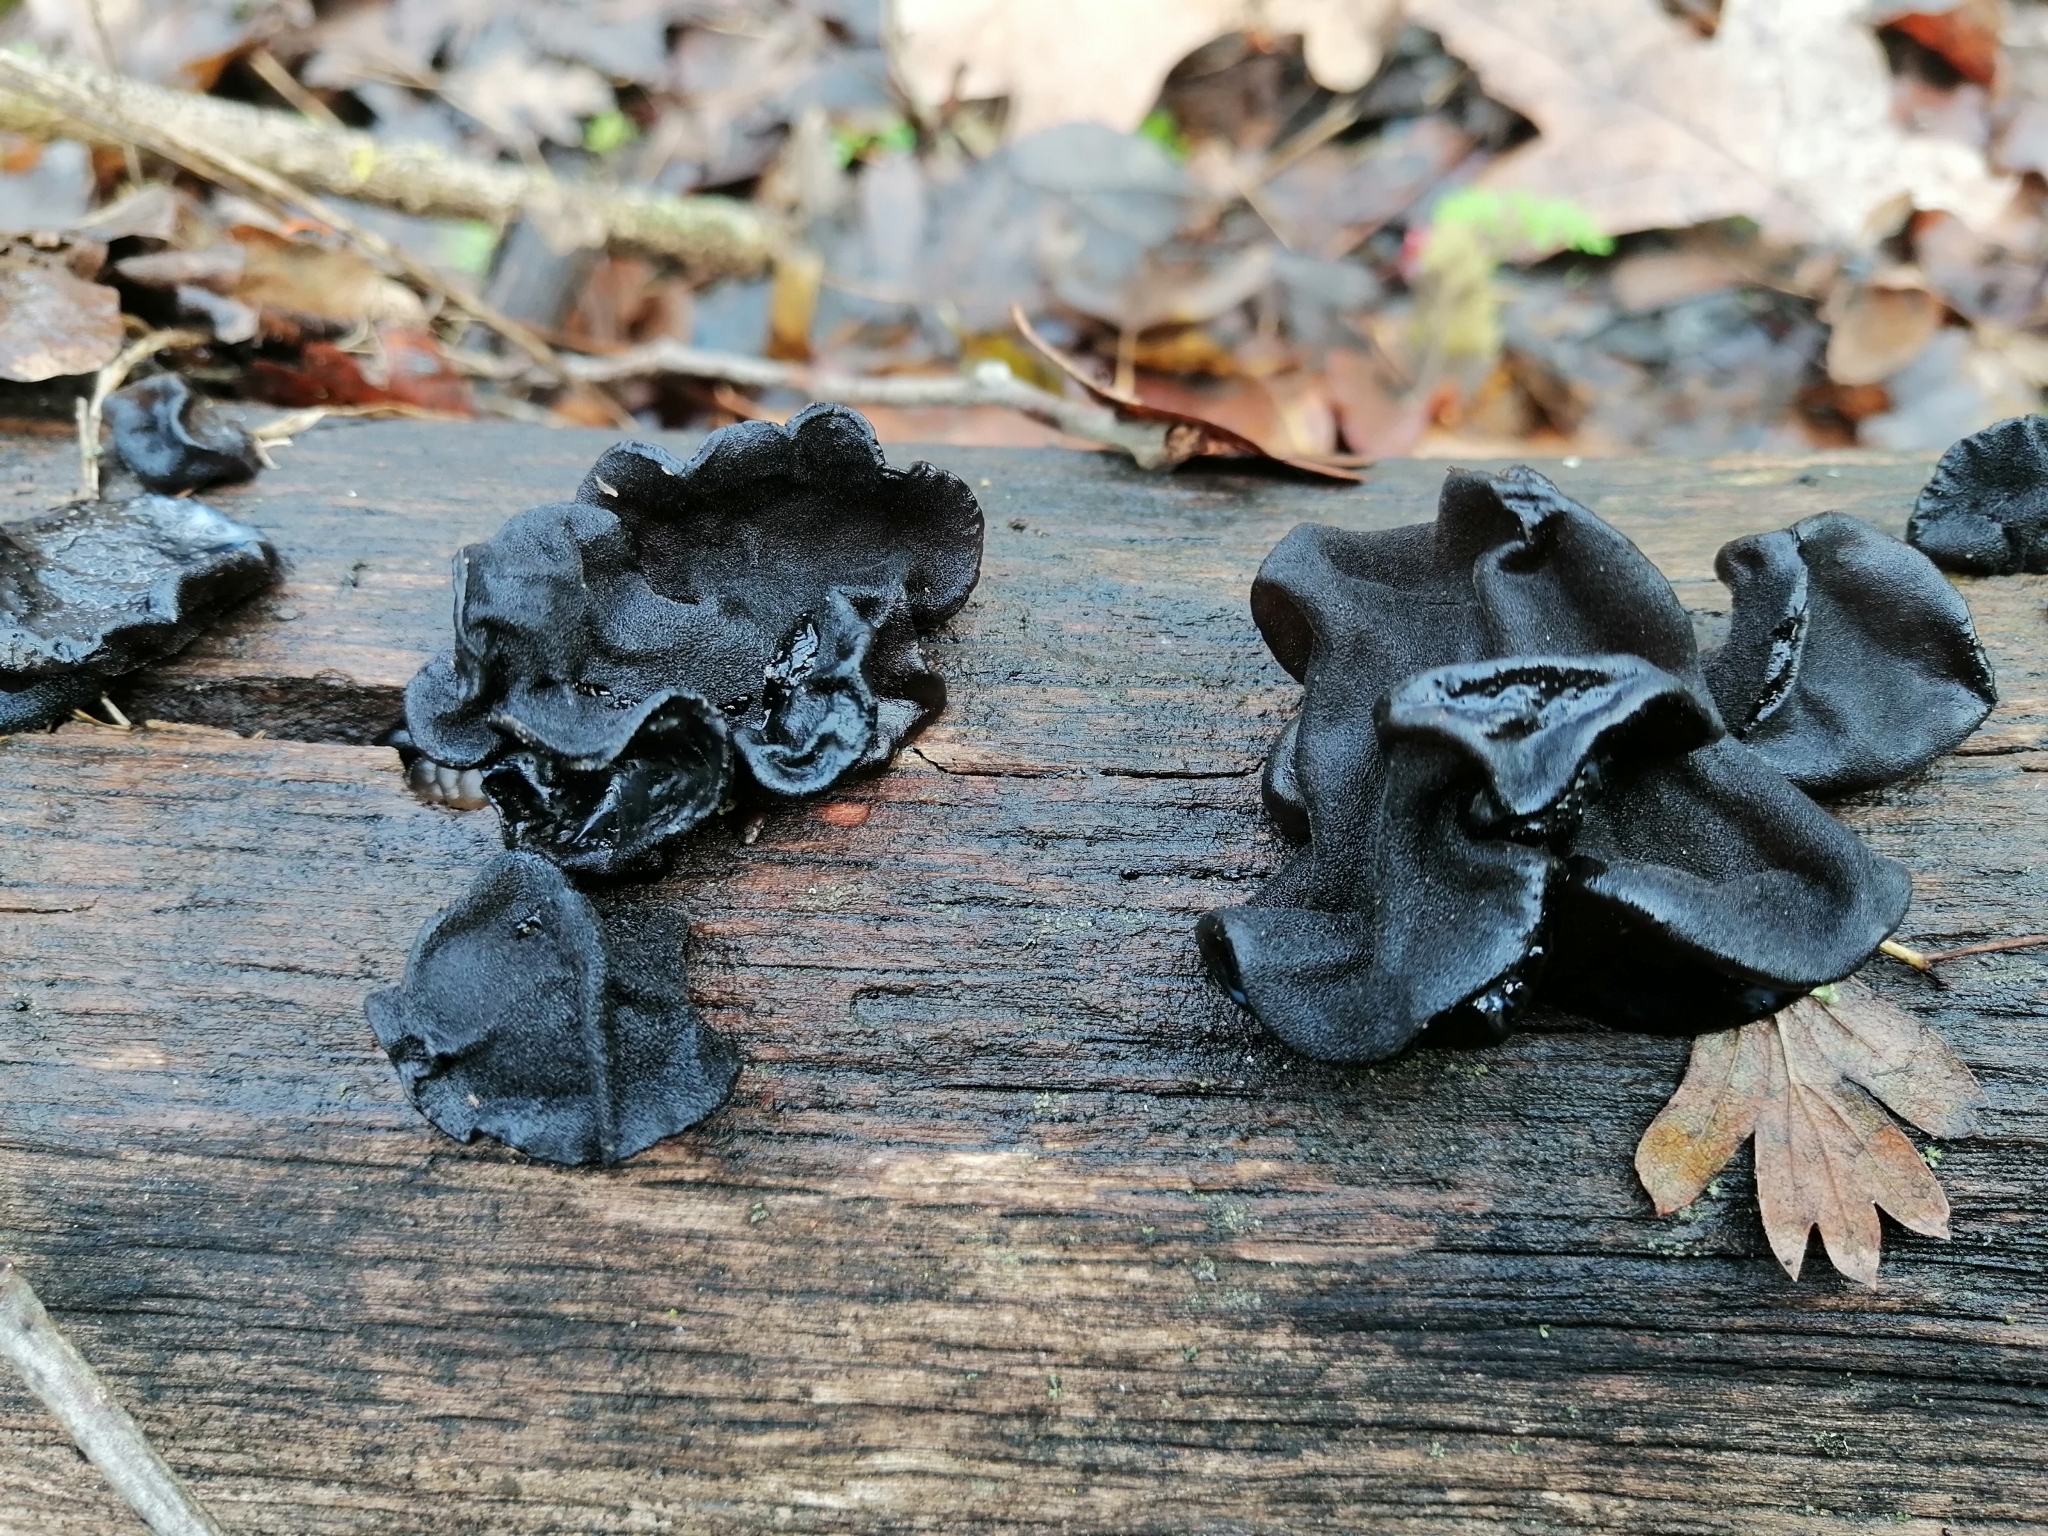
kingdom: Fungi
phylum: Basidiomycota
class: Agaricomycetes
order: Auriculariales
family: Auriculariaceae
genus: Exidia
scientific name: Exidia glandulosa
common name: Witches' butter
